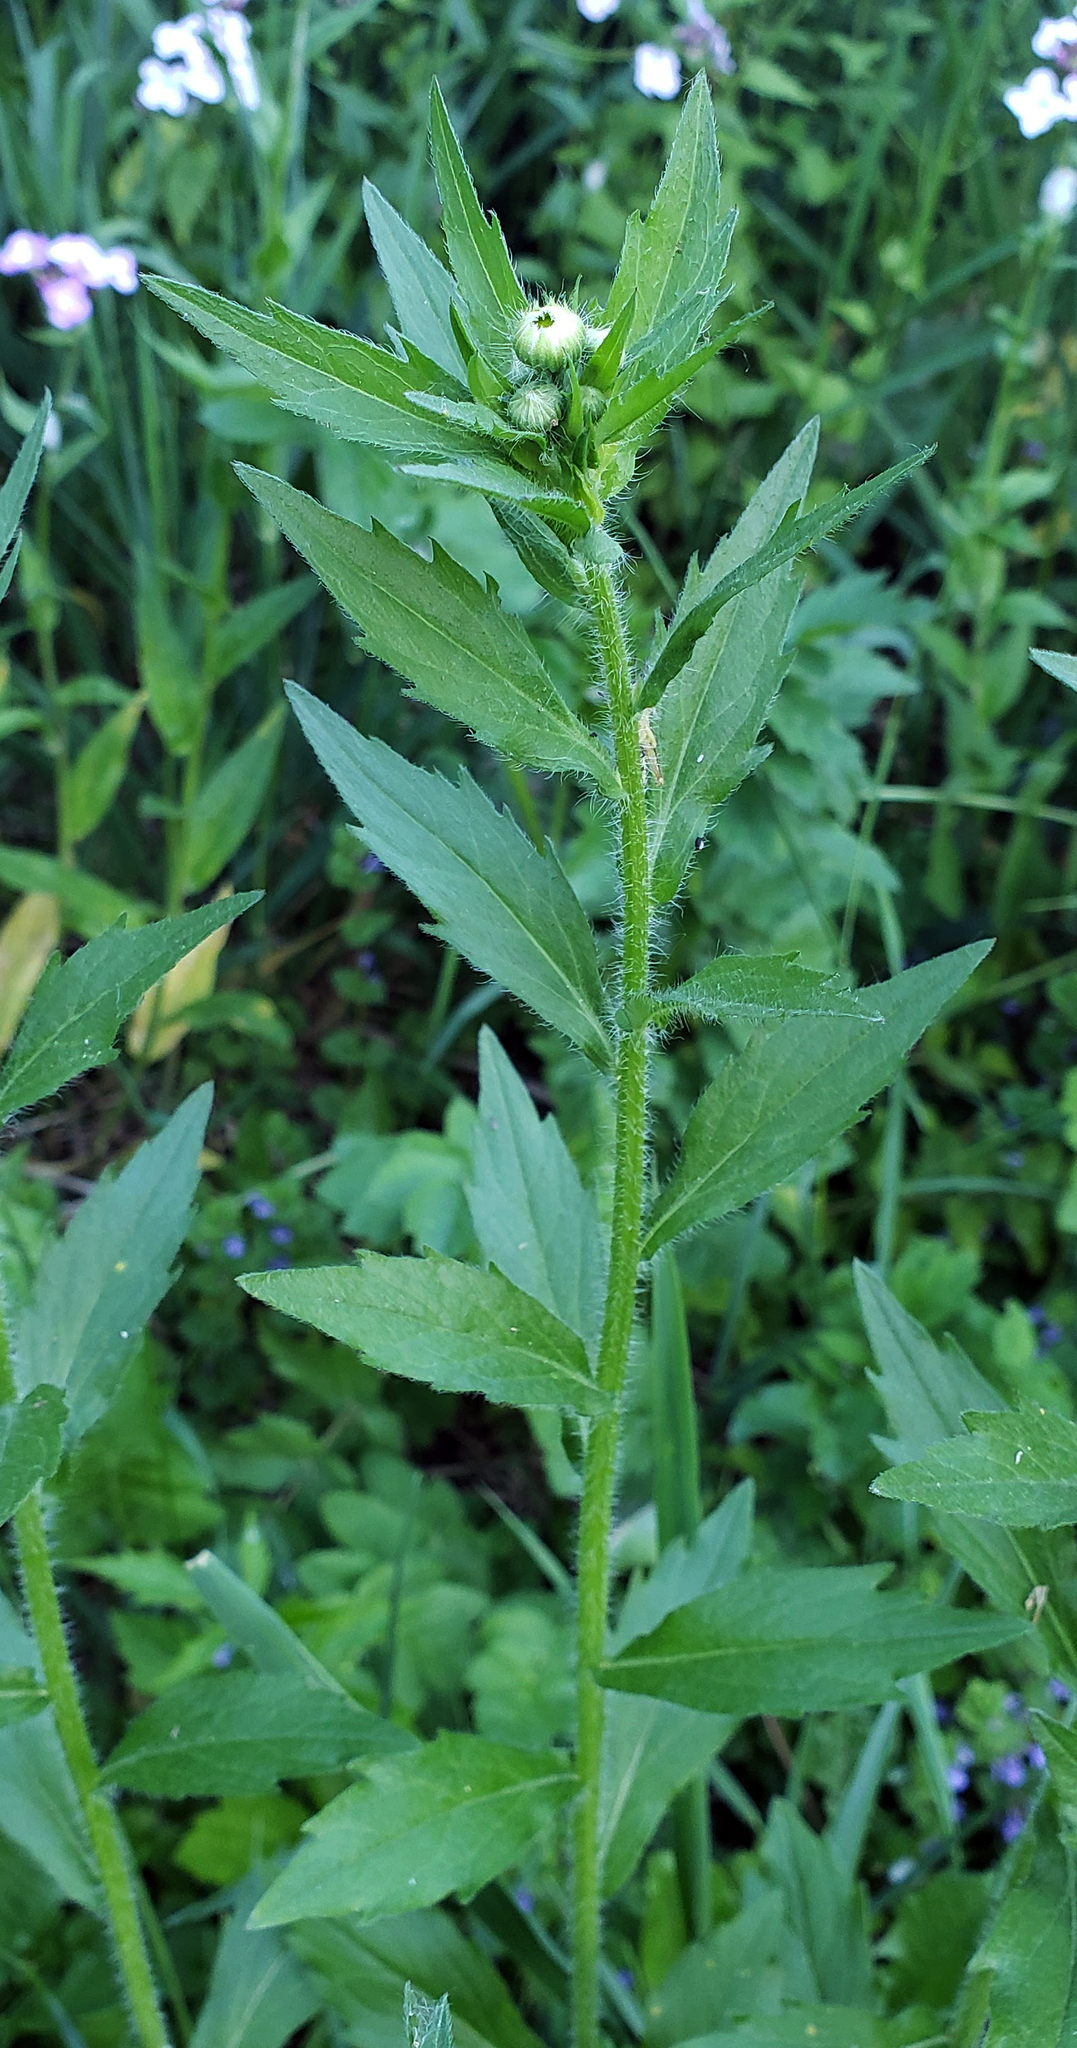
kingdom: Plantae
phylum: Tracheophyta
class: Magnoliopsida
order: Asterales
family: Asteraceae
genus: Erigeron
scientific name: Erigeron annuus
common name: Tall fleabane
